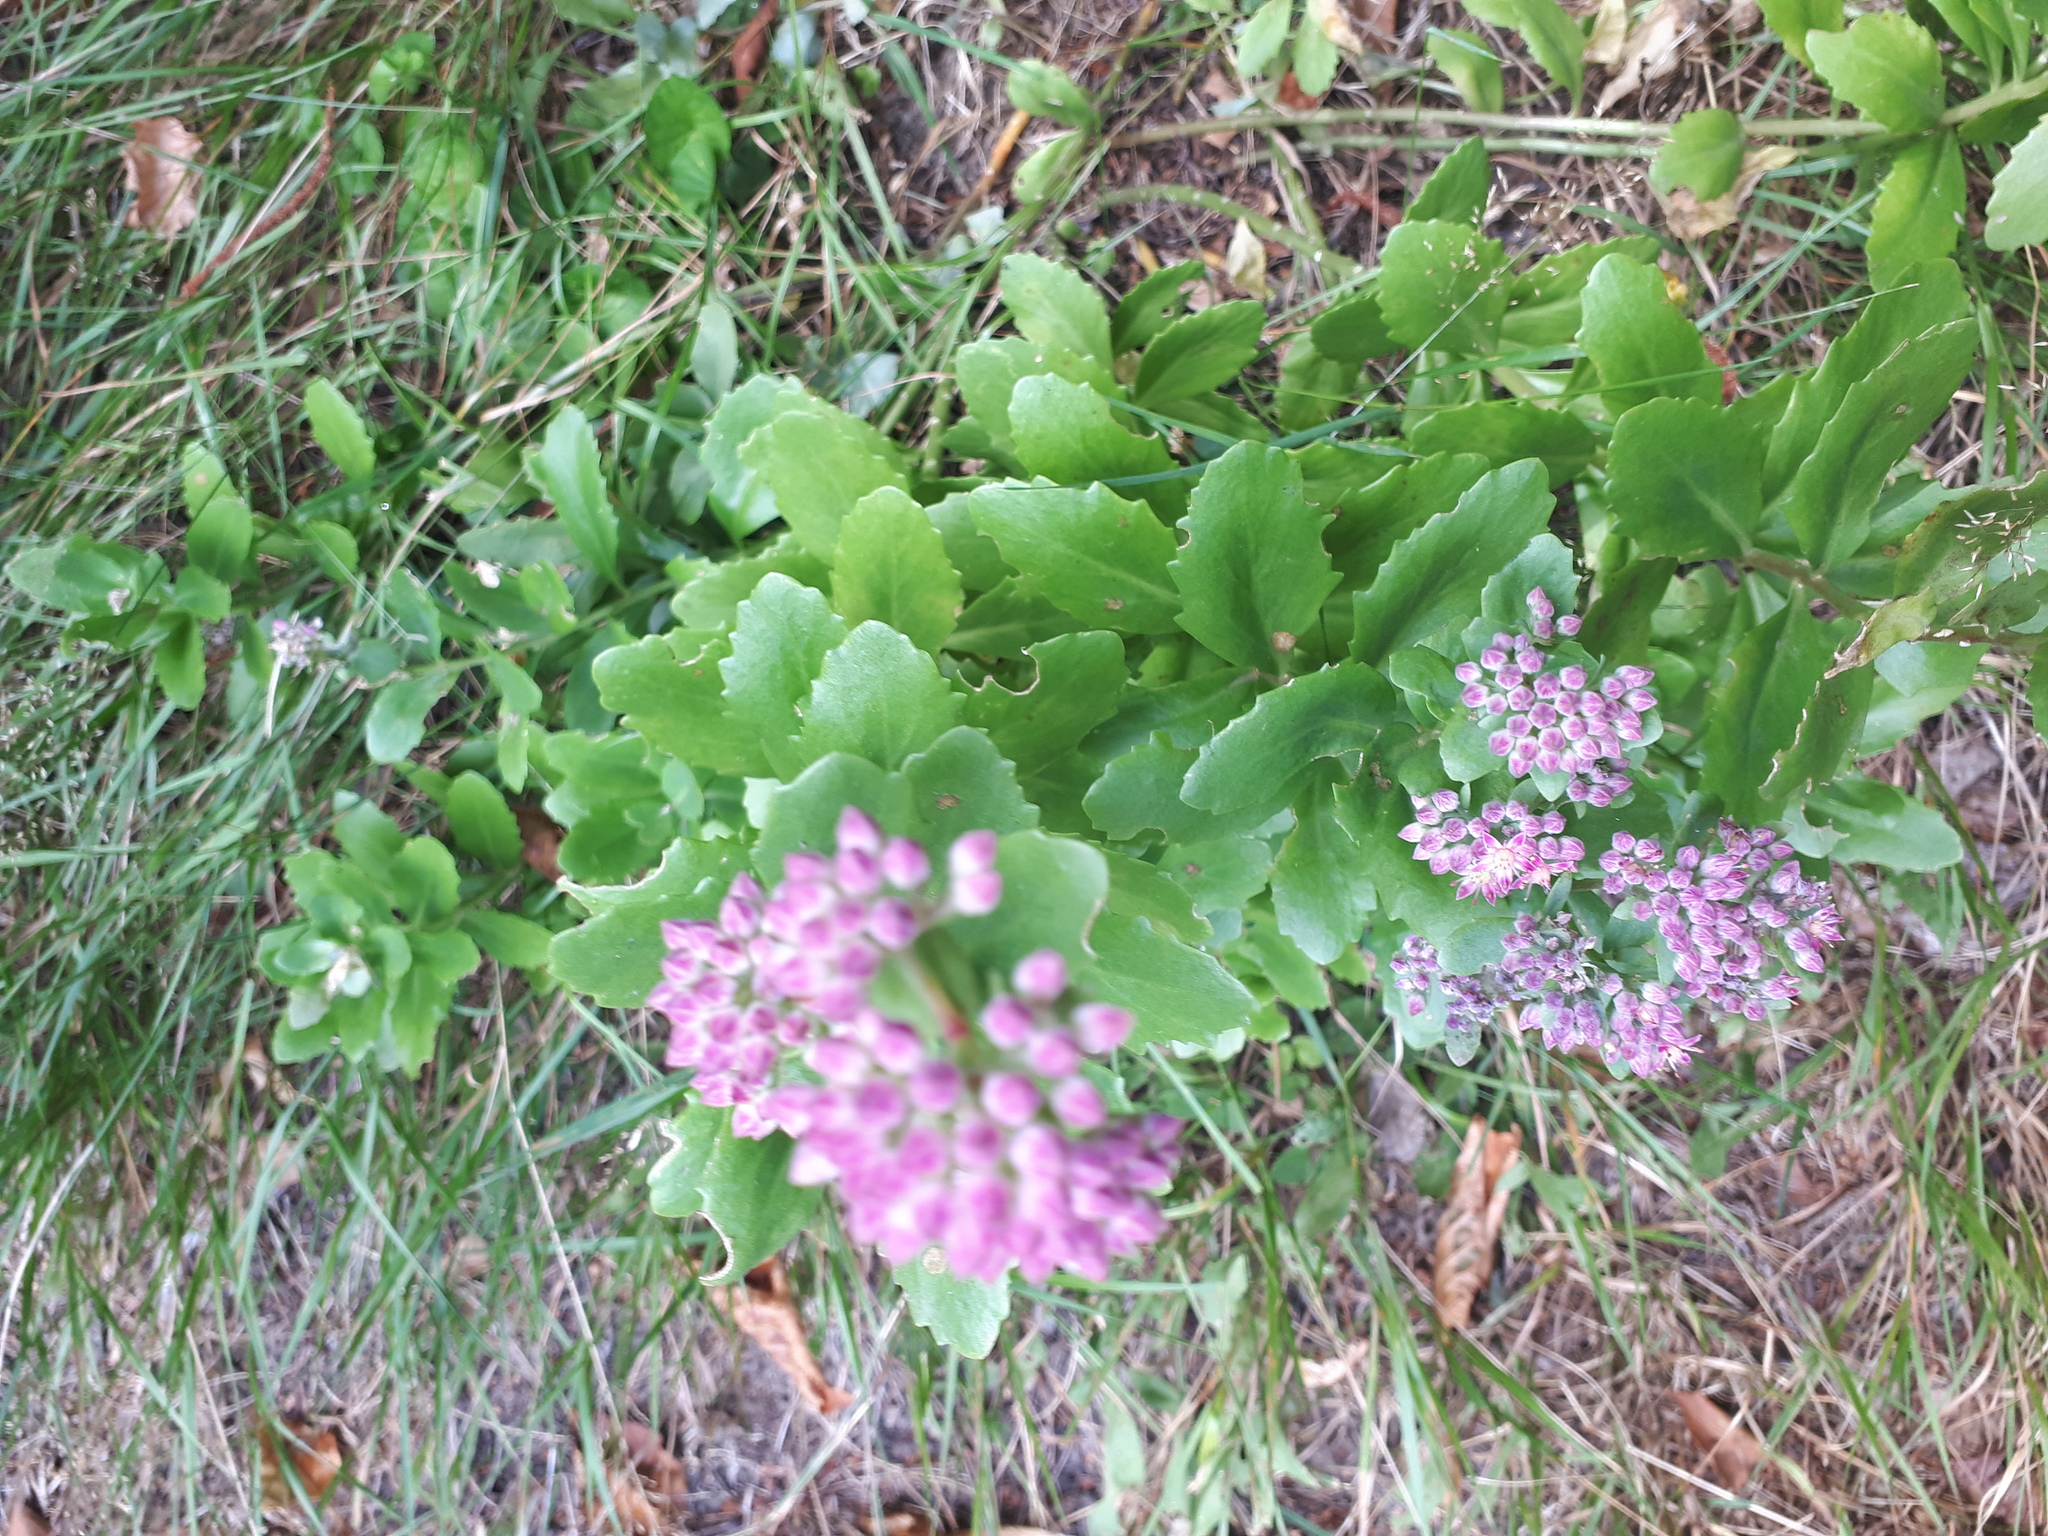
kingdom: Plantae
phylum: Tracheophyta
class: Magnoliopsida
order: Saxifragales
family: Crassulaceae
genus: Hylotelephium
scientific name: Hylotelephium telephium
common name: Live-forever
